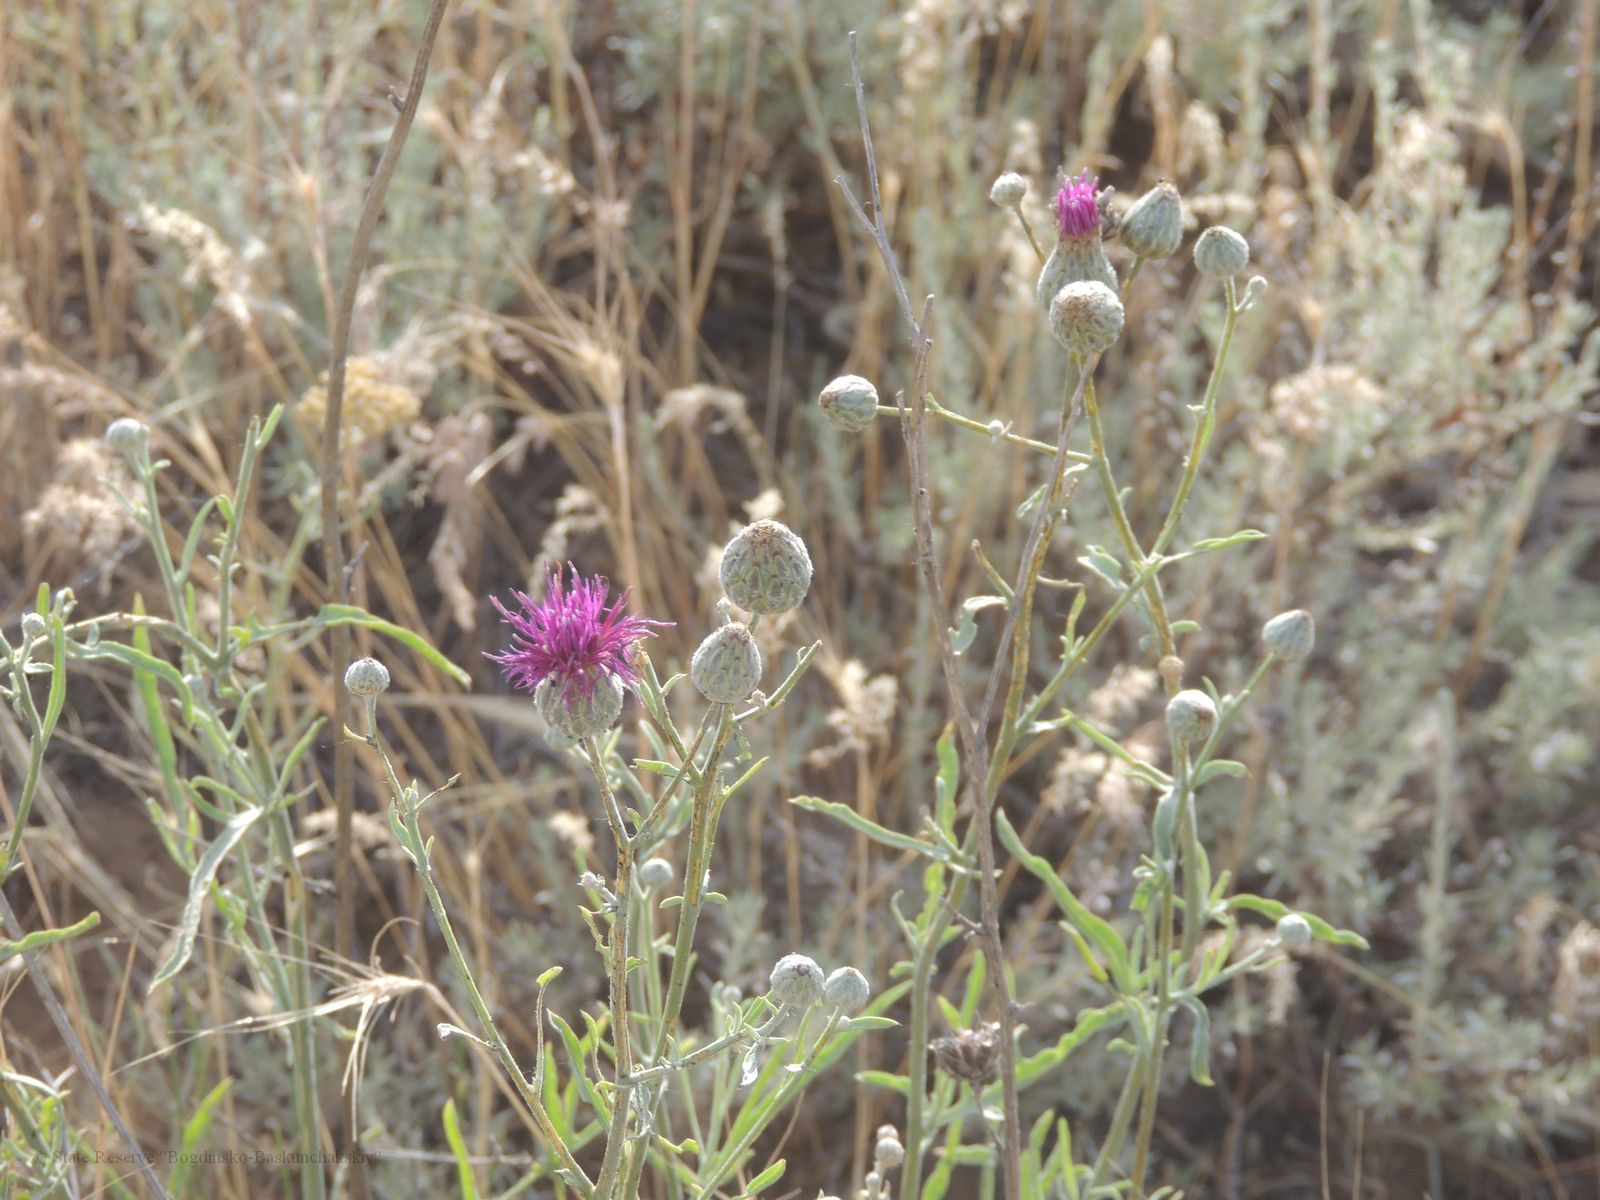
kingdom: Plantae
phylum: Tracheophyta
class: Magnoliopsida
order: Asterales
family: Asteraceae
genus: Centaurea
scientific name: Centaurea scabiosa
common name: Greater knapweed
